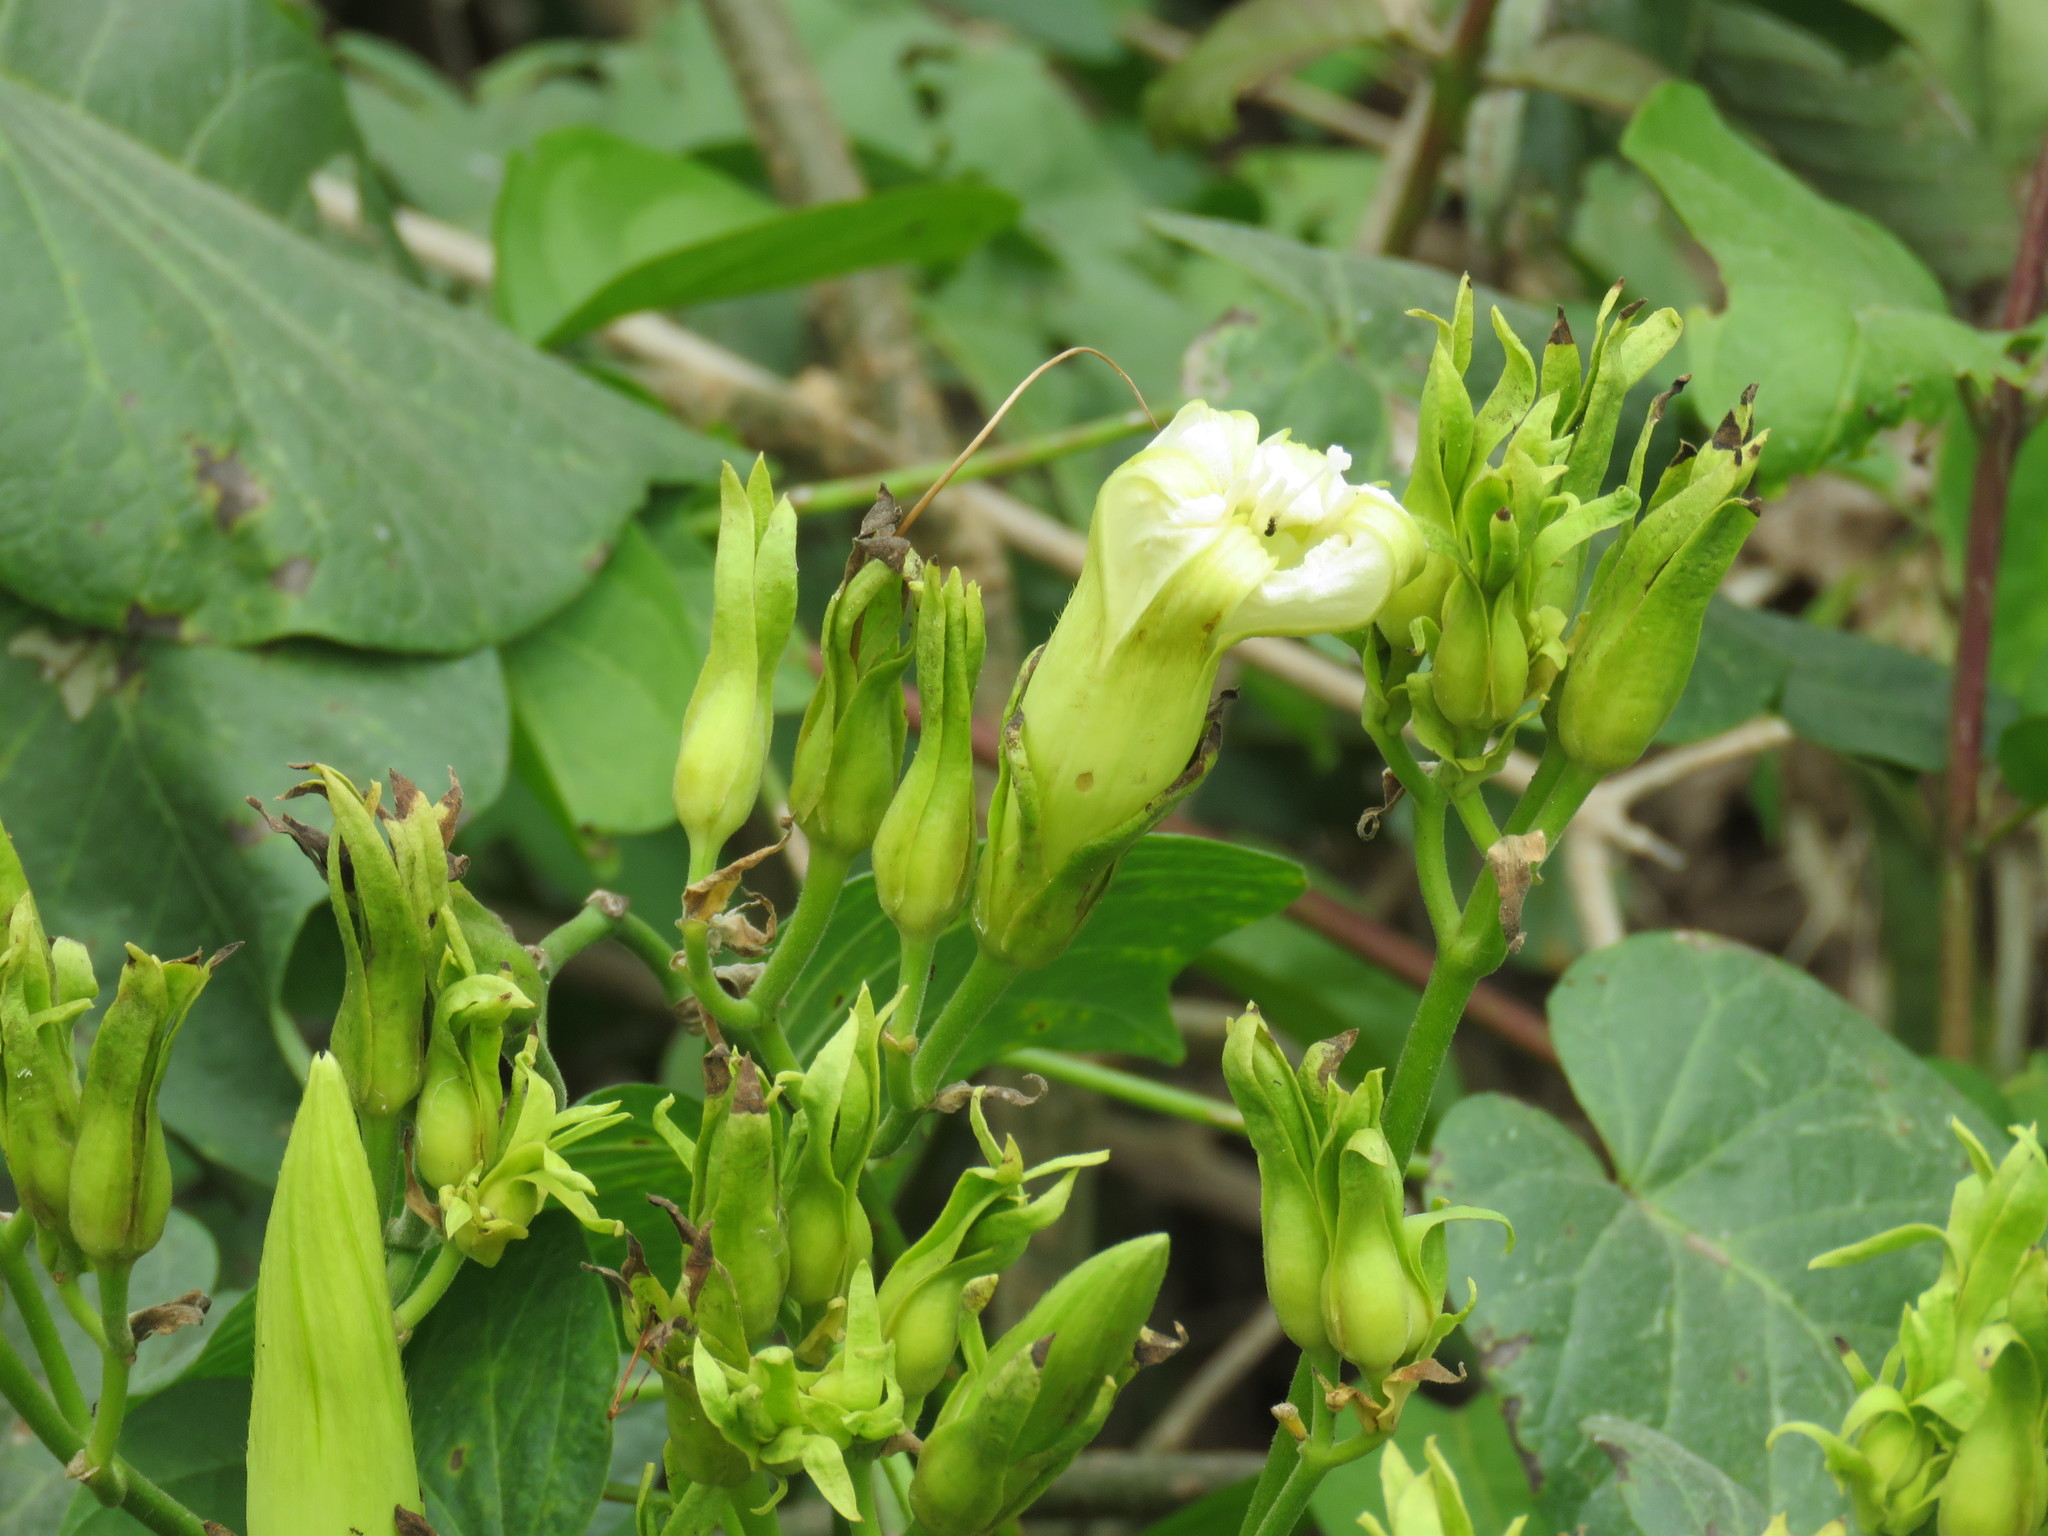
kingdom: Plantae
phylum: Tracheophyta
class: Magnoliopsida
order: Solanales
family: Convolvulaceae
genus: Ipomoea
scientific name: Ipomoea ampullacea
